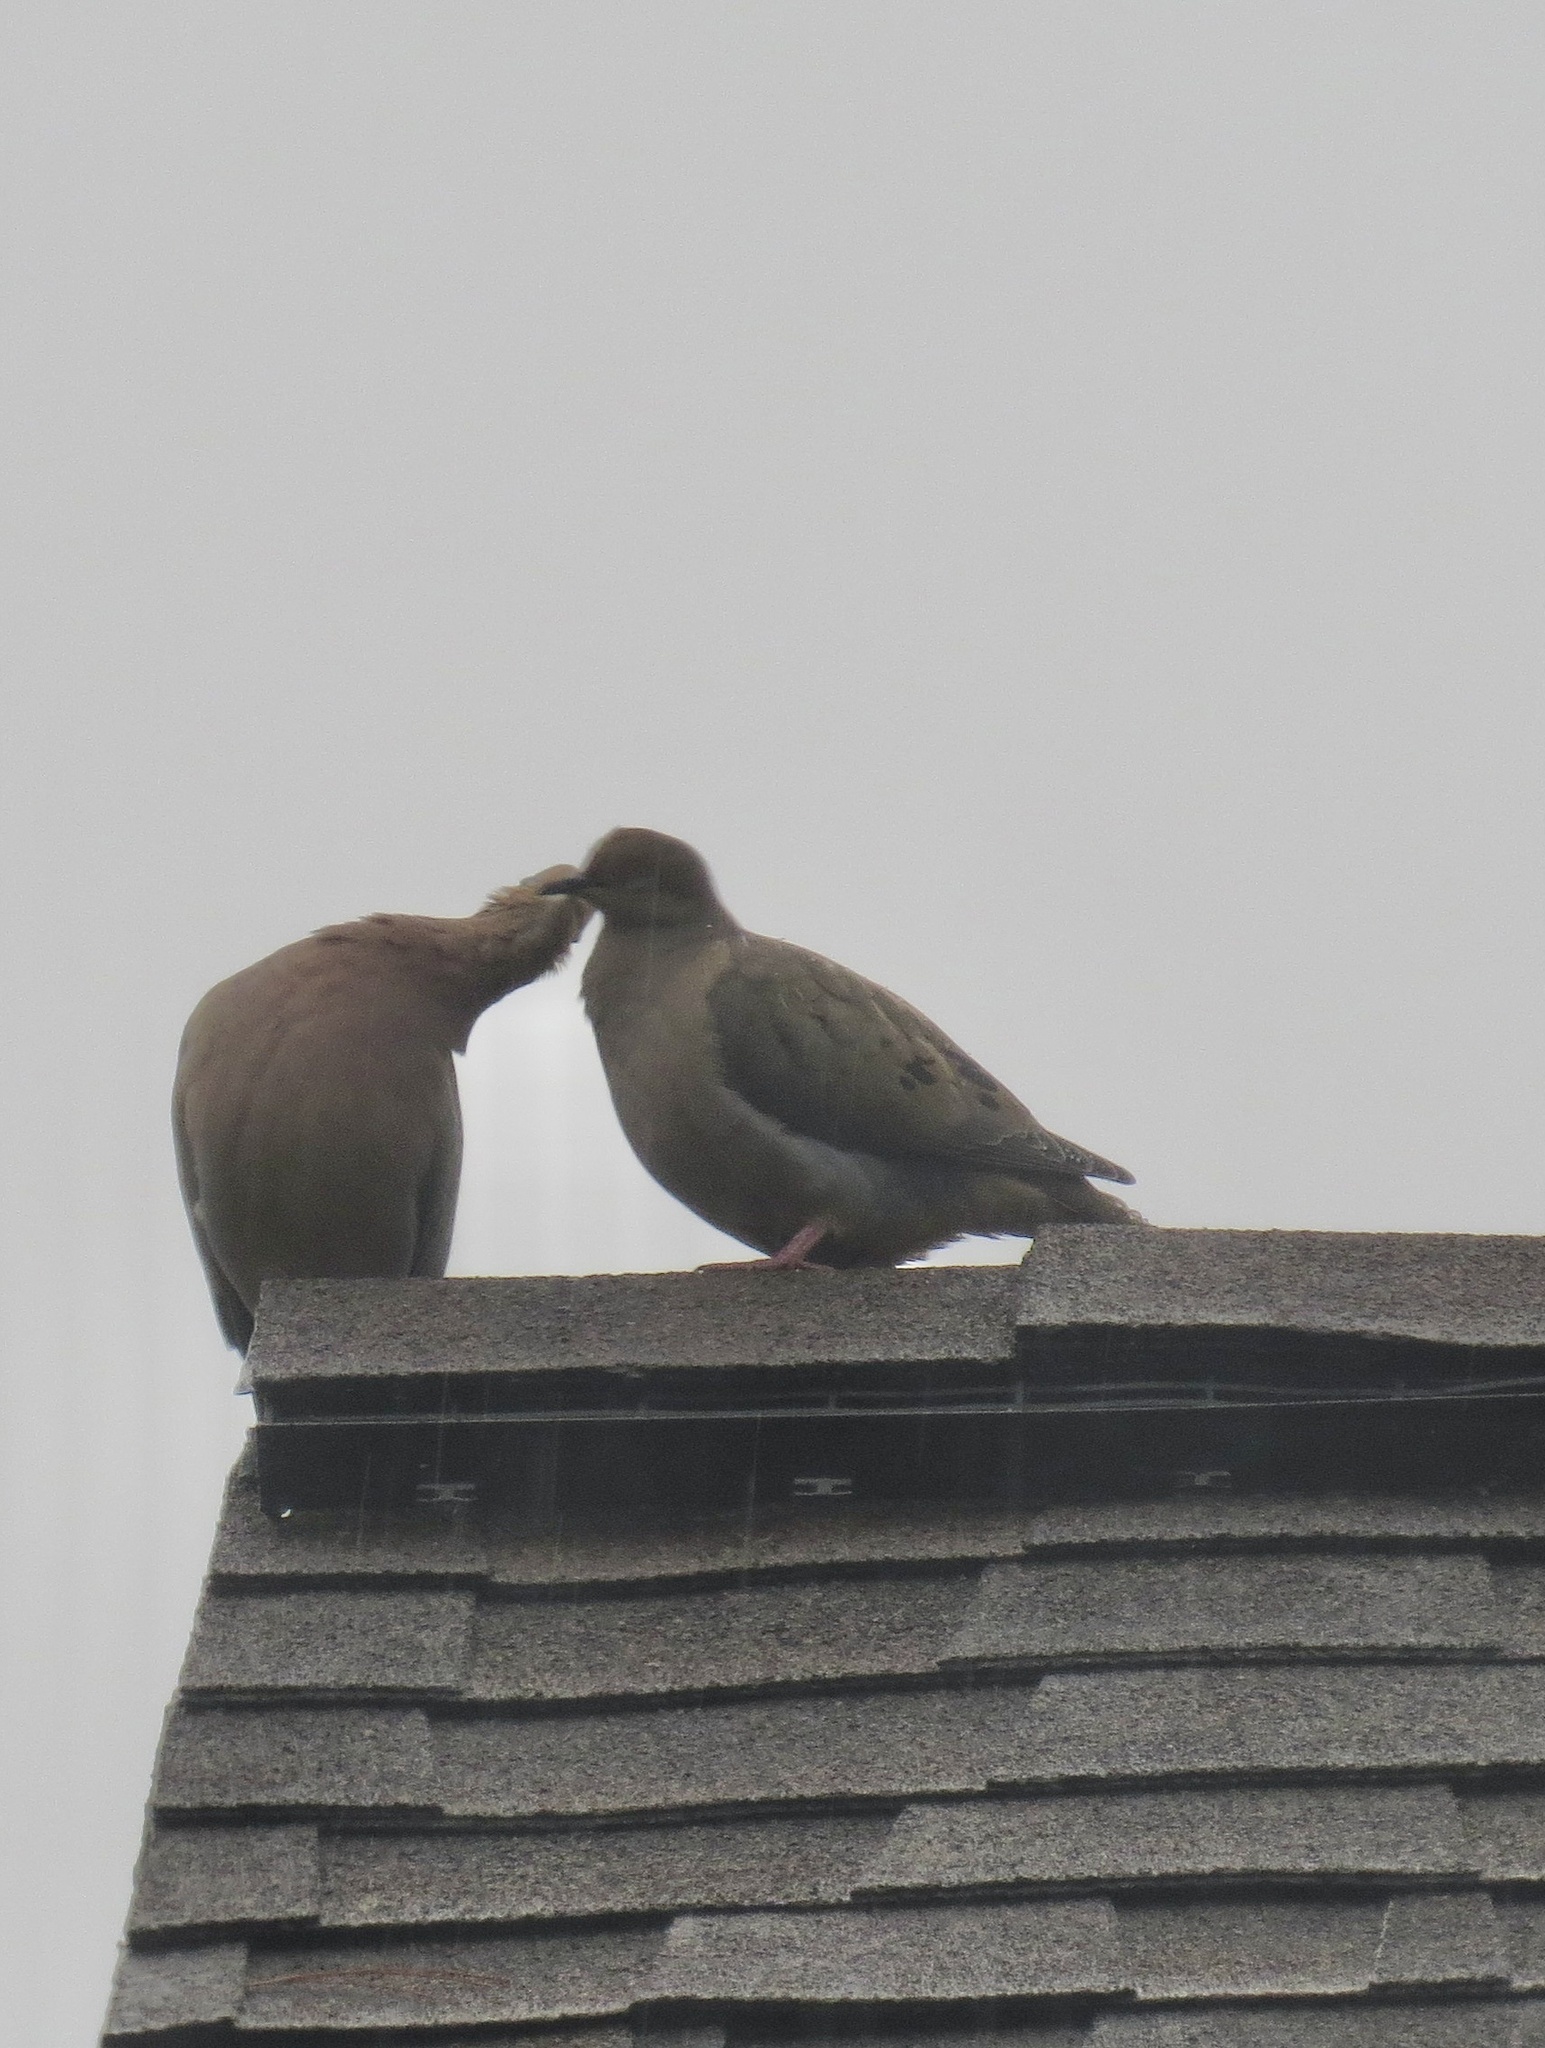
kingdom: Animalia
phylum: Chordata
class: Aves
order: Columbiformes
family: Columbidae
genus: Zenaida
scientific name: Zenaida macroura
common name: Mourning dove
